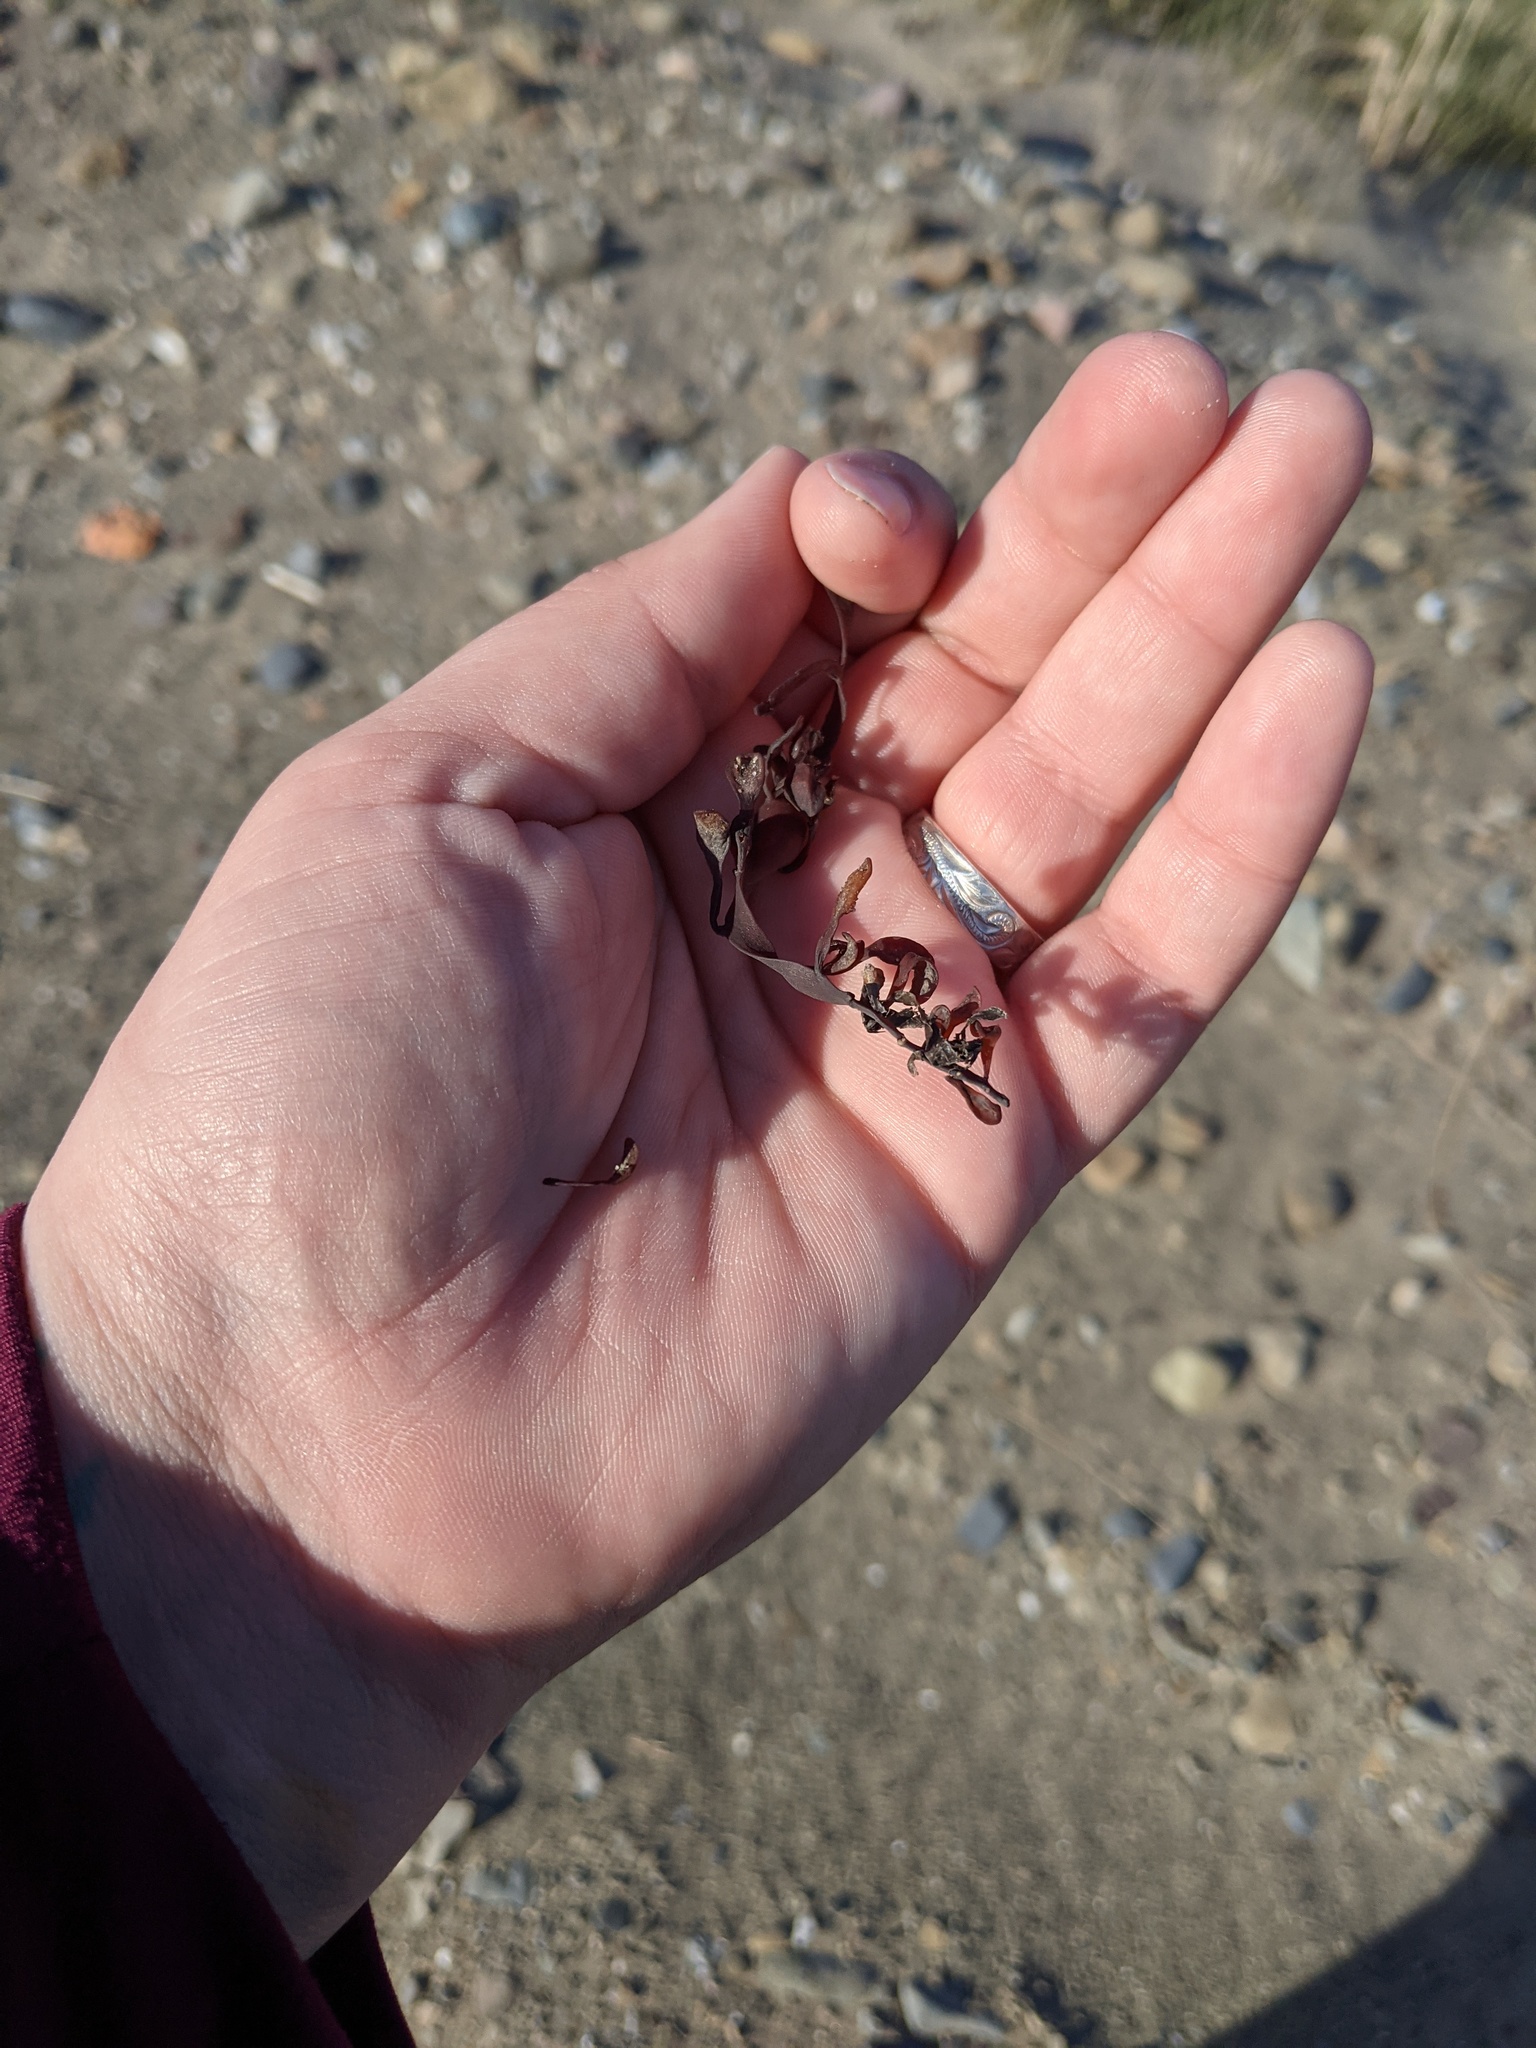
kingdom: Chromista
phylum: Ochrophyta
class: Phaeophyceae
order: Fucales
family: Fucaceae
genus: Ascophyllum
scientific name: Ascophyllum nodosum
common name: Knotted wrack
